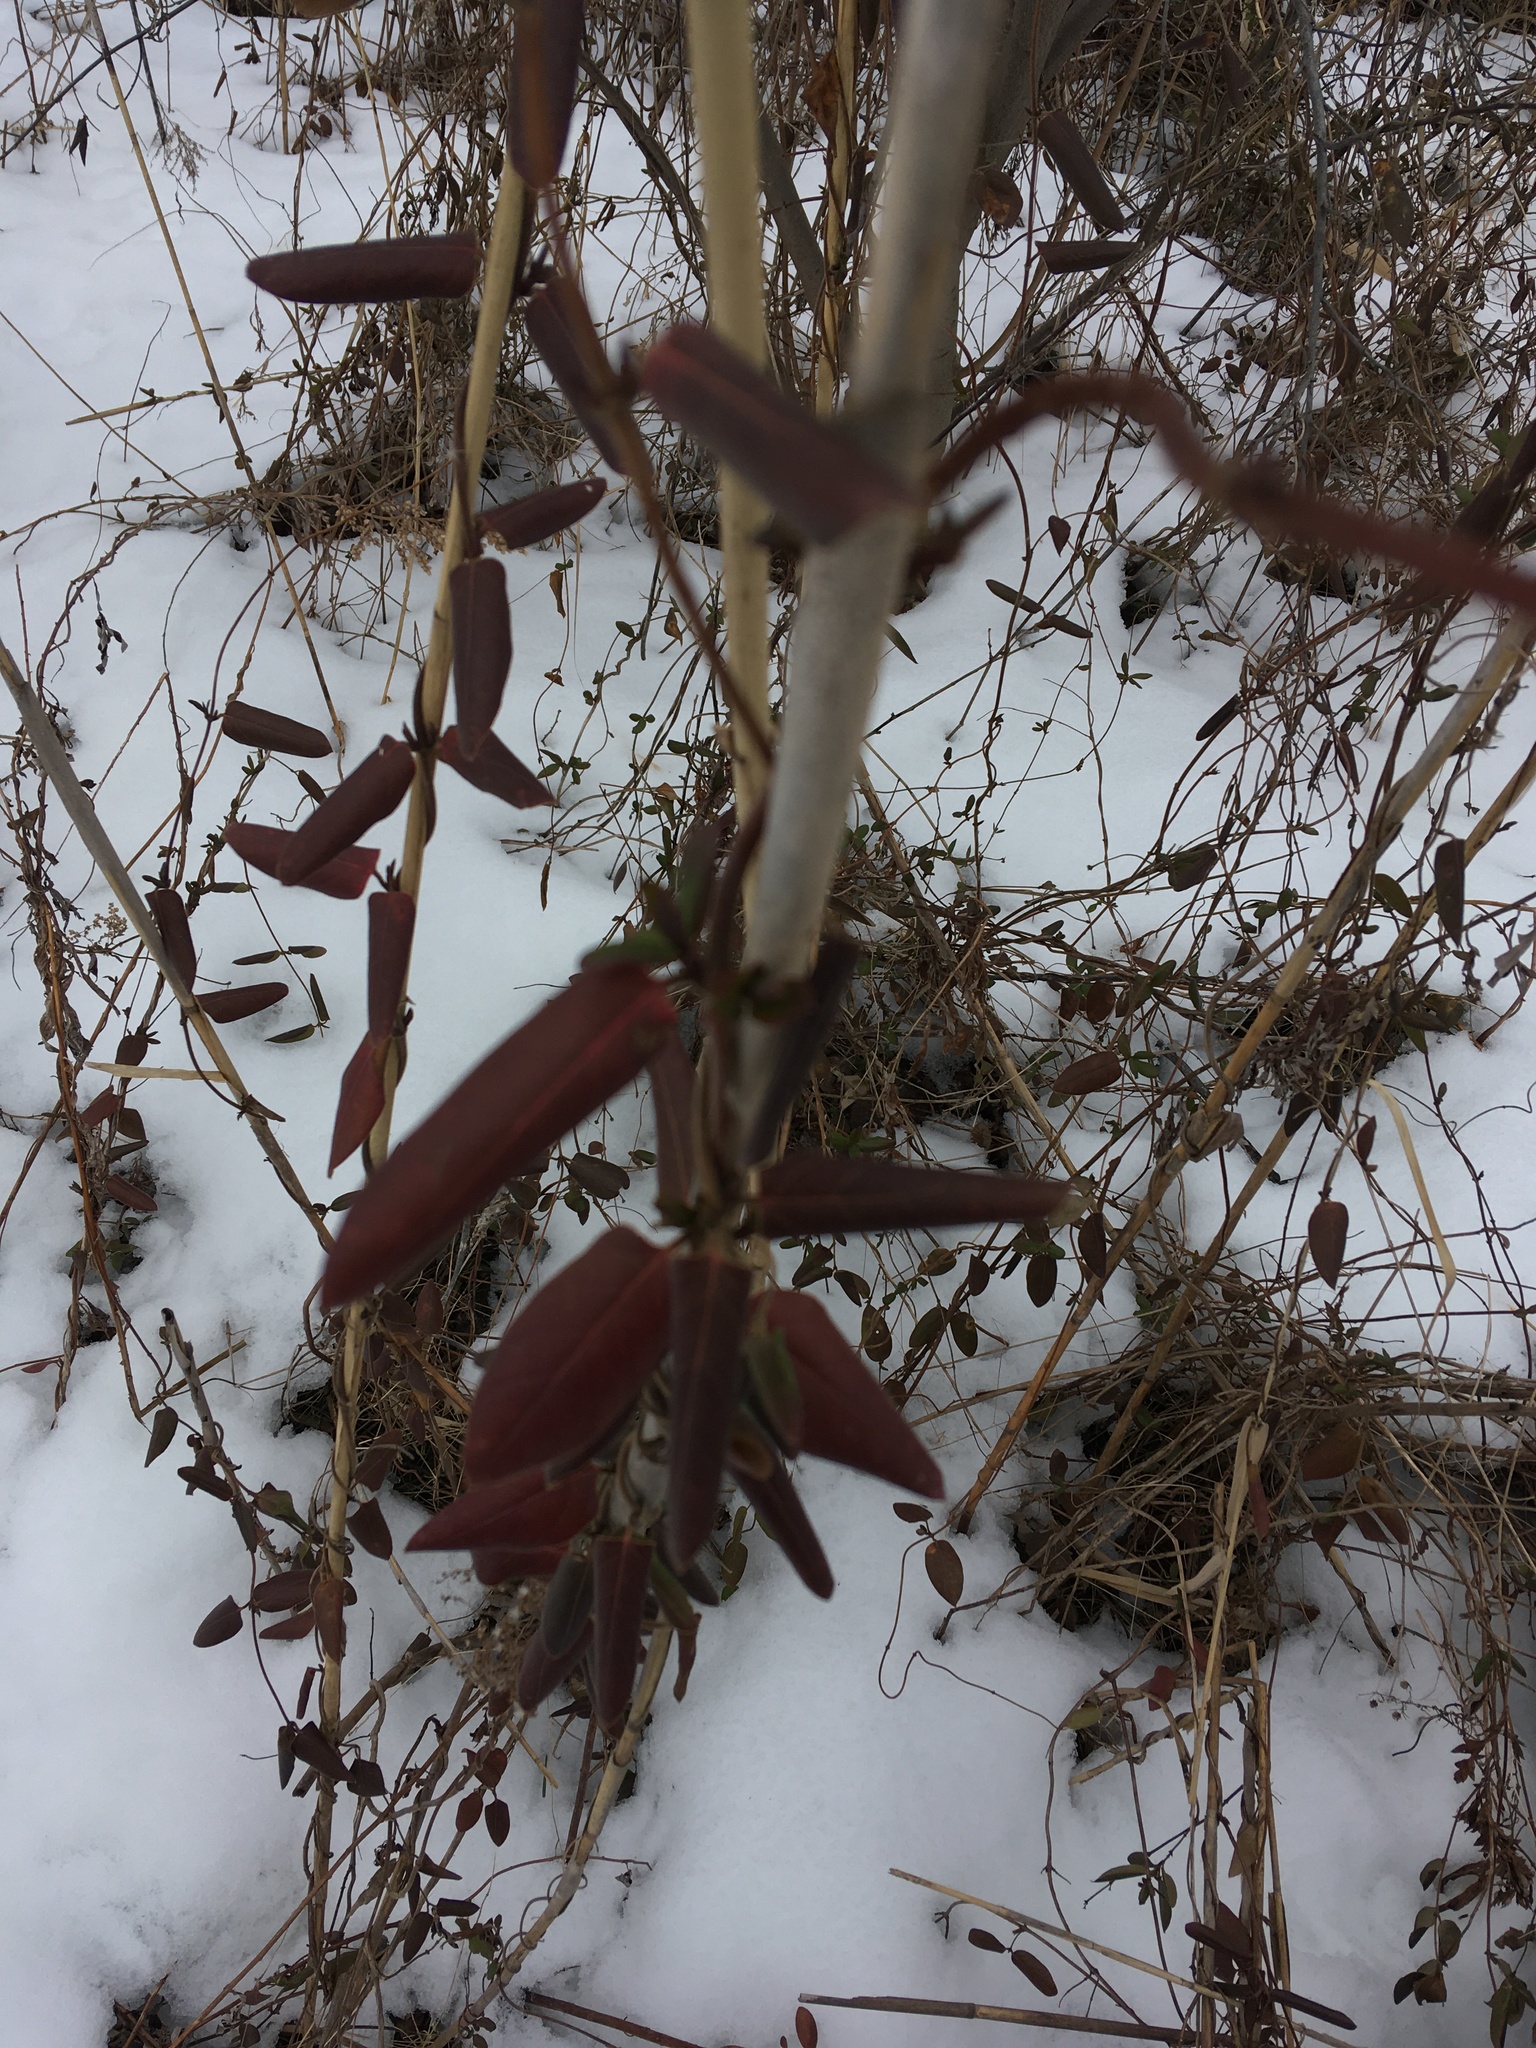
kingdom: Plantae
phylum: Tracheophyta
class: Magnoliopsida
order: Dipsacales
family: Caprifoliaceae
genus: Lonicera
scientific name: Lonicera japonica
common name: Japanese honeysuckle
